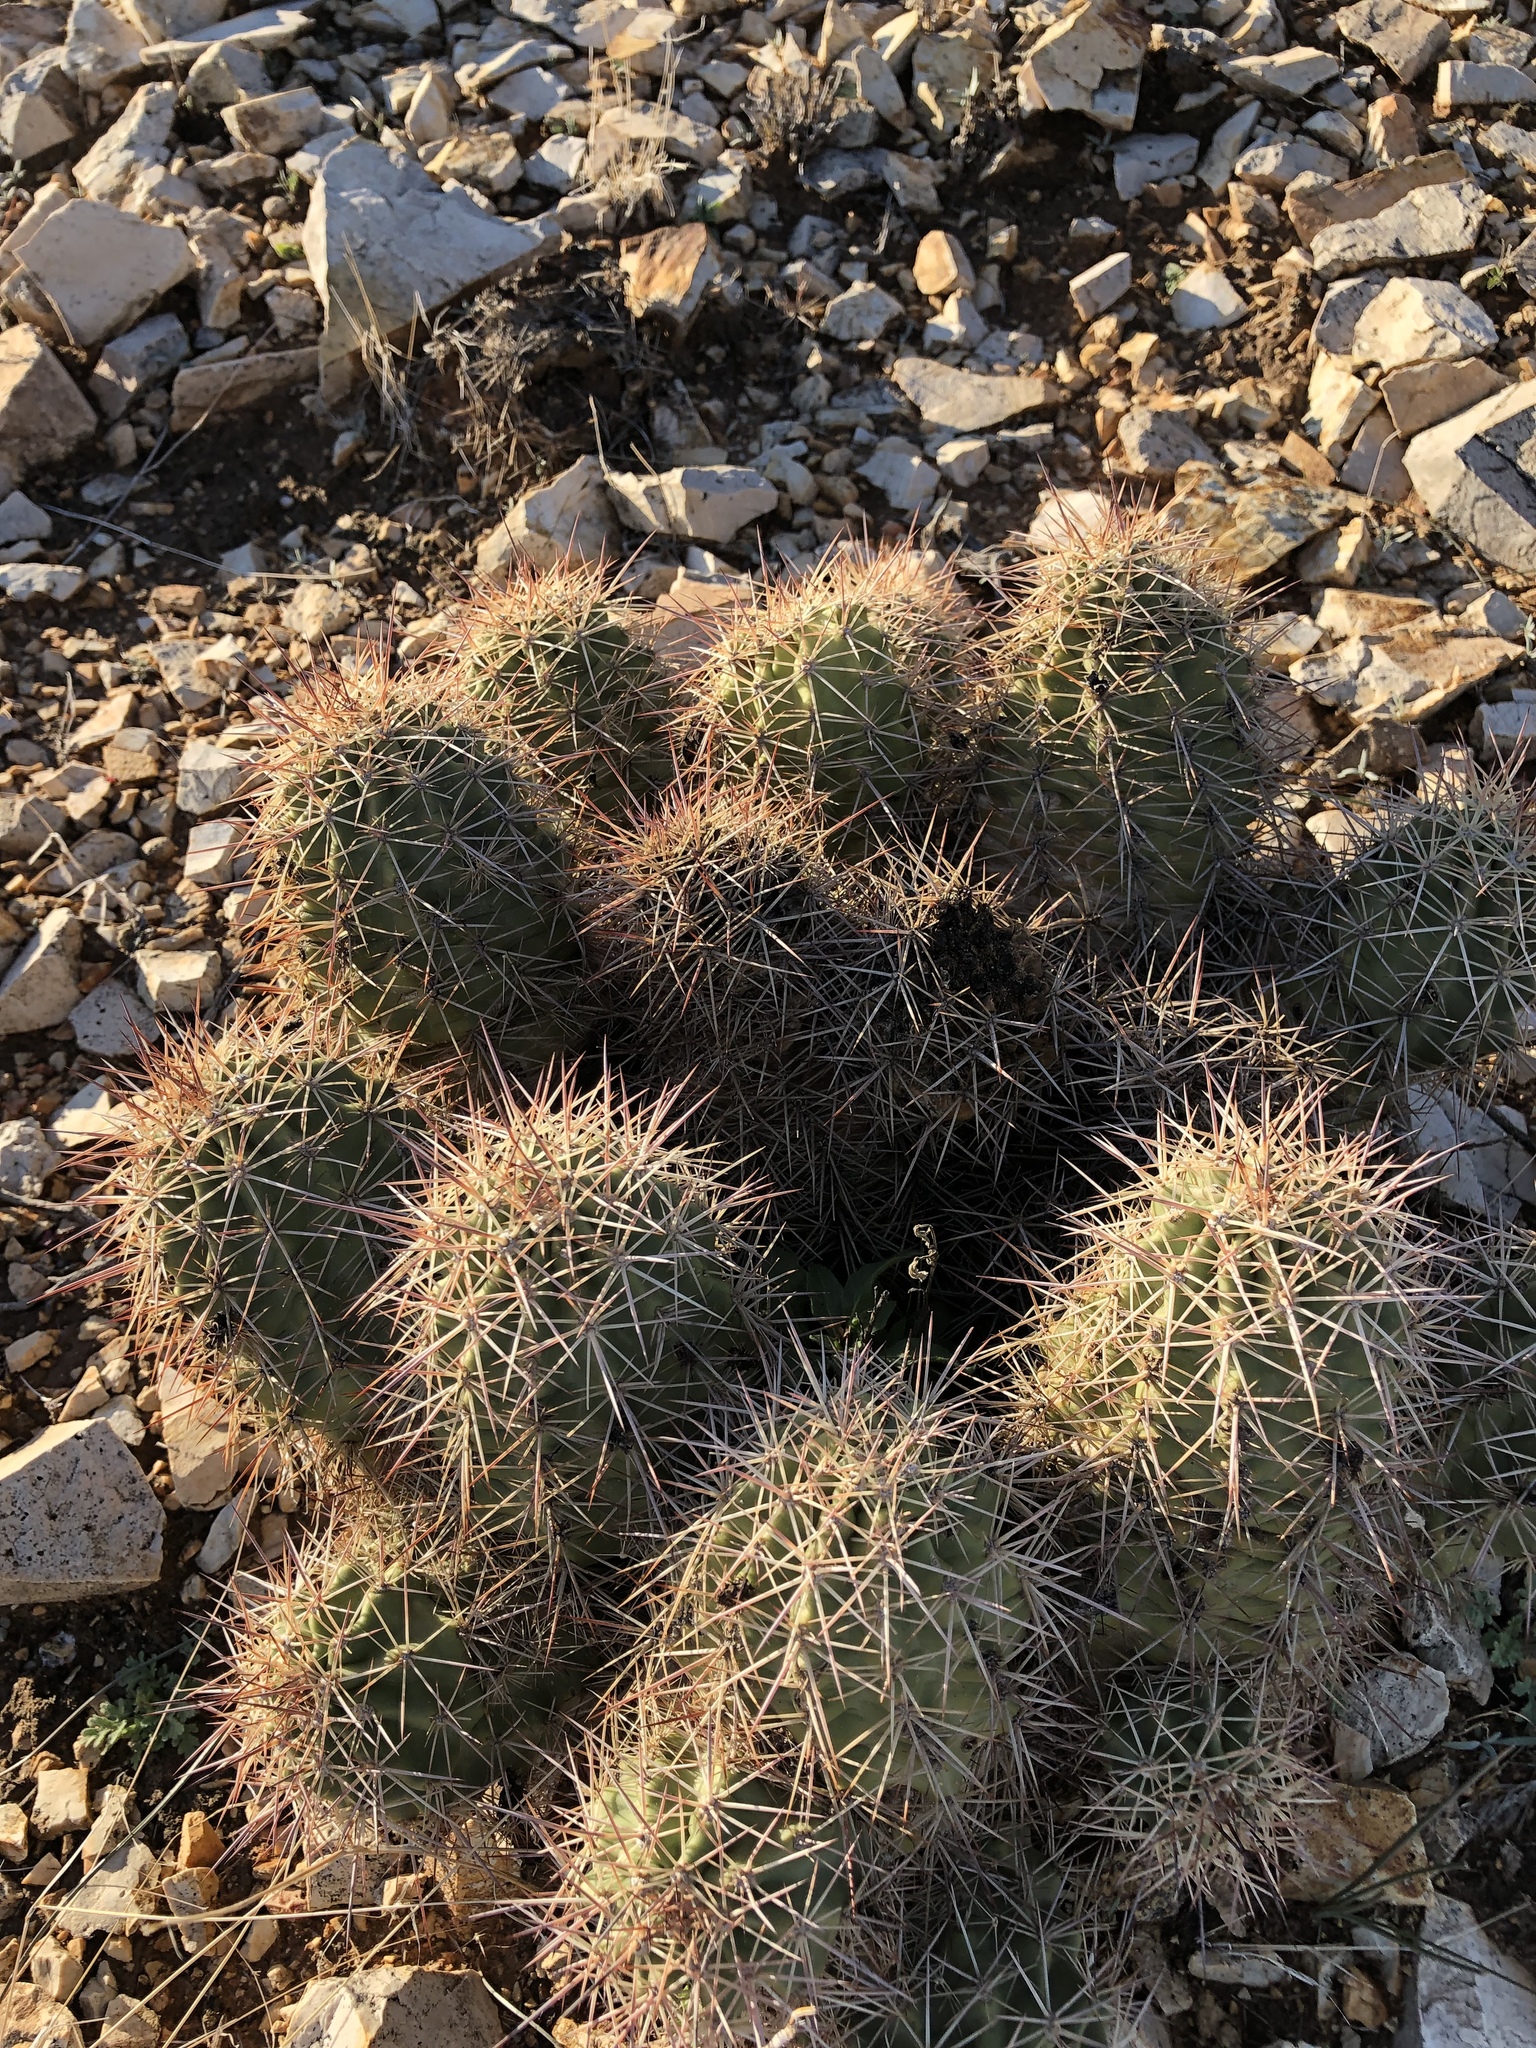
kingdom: Plantae
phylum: Tracheophyta
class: Magnoliopsida
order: Caryophyllales
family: Cactaceae
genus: Echinocereus
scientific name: Echinocereus coccineus
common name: Scarlet hedgehog cactus
